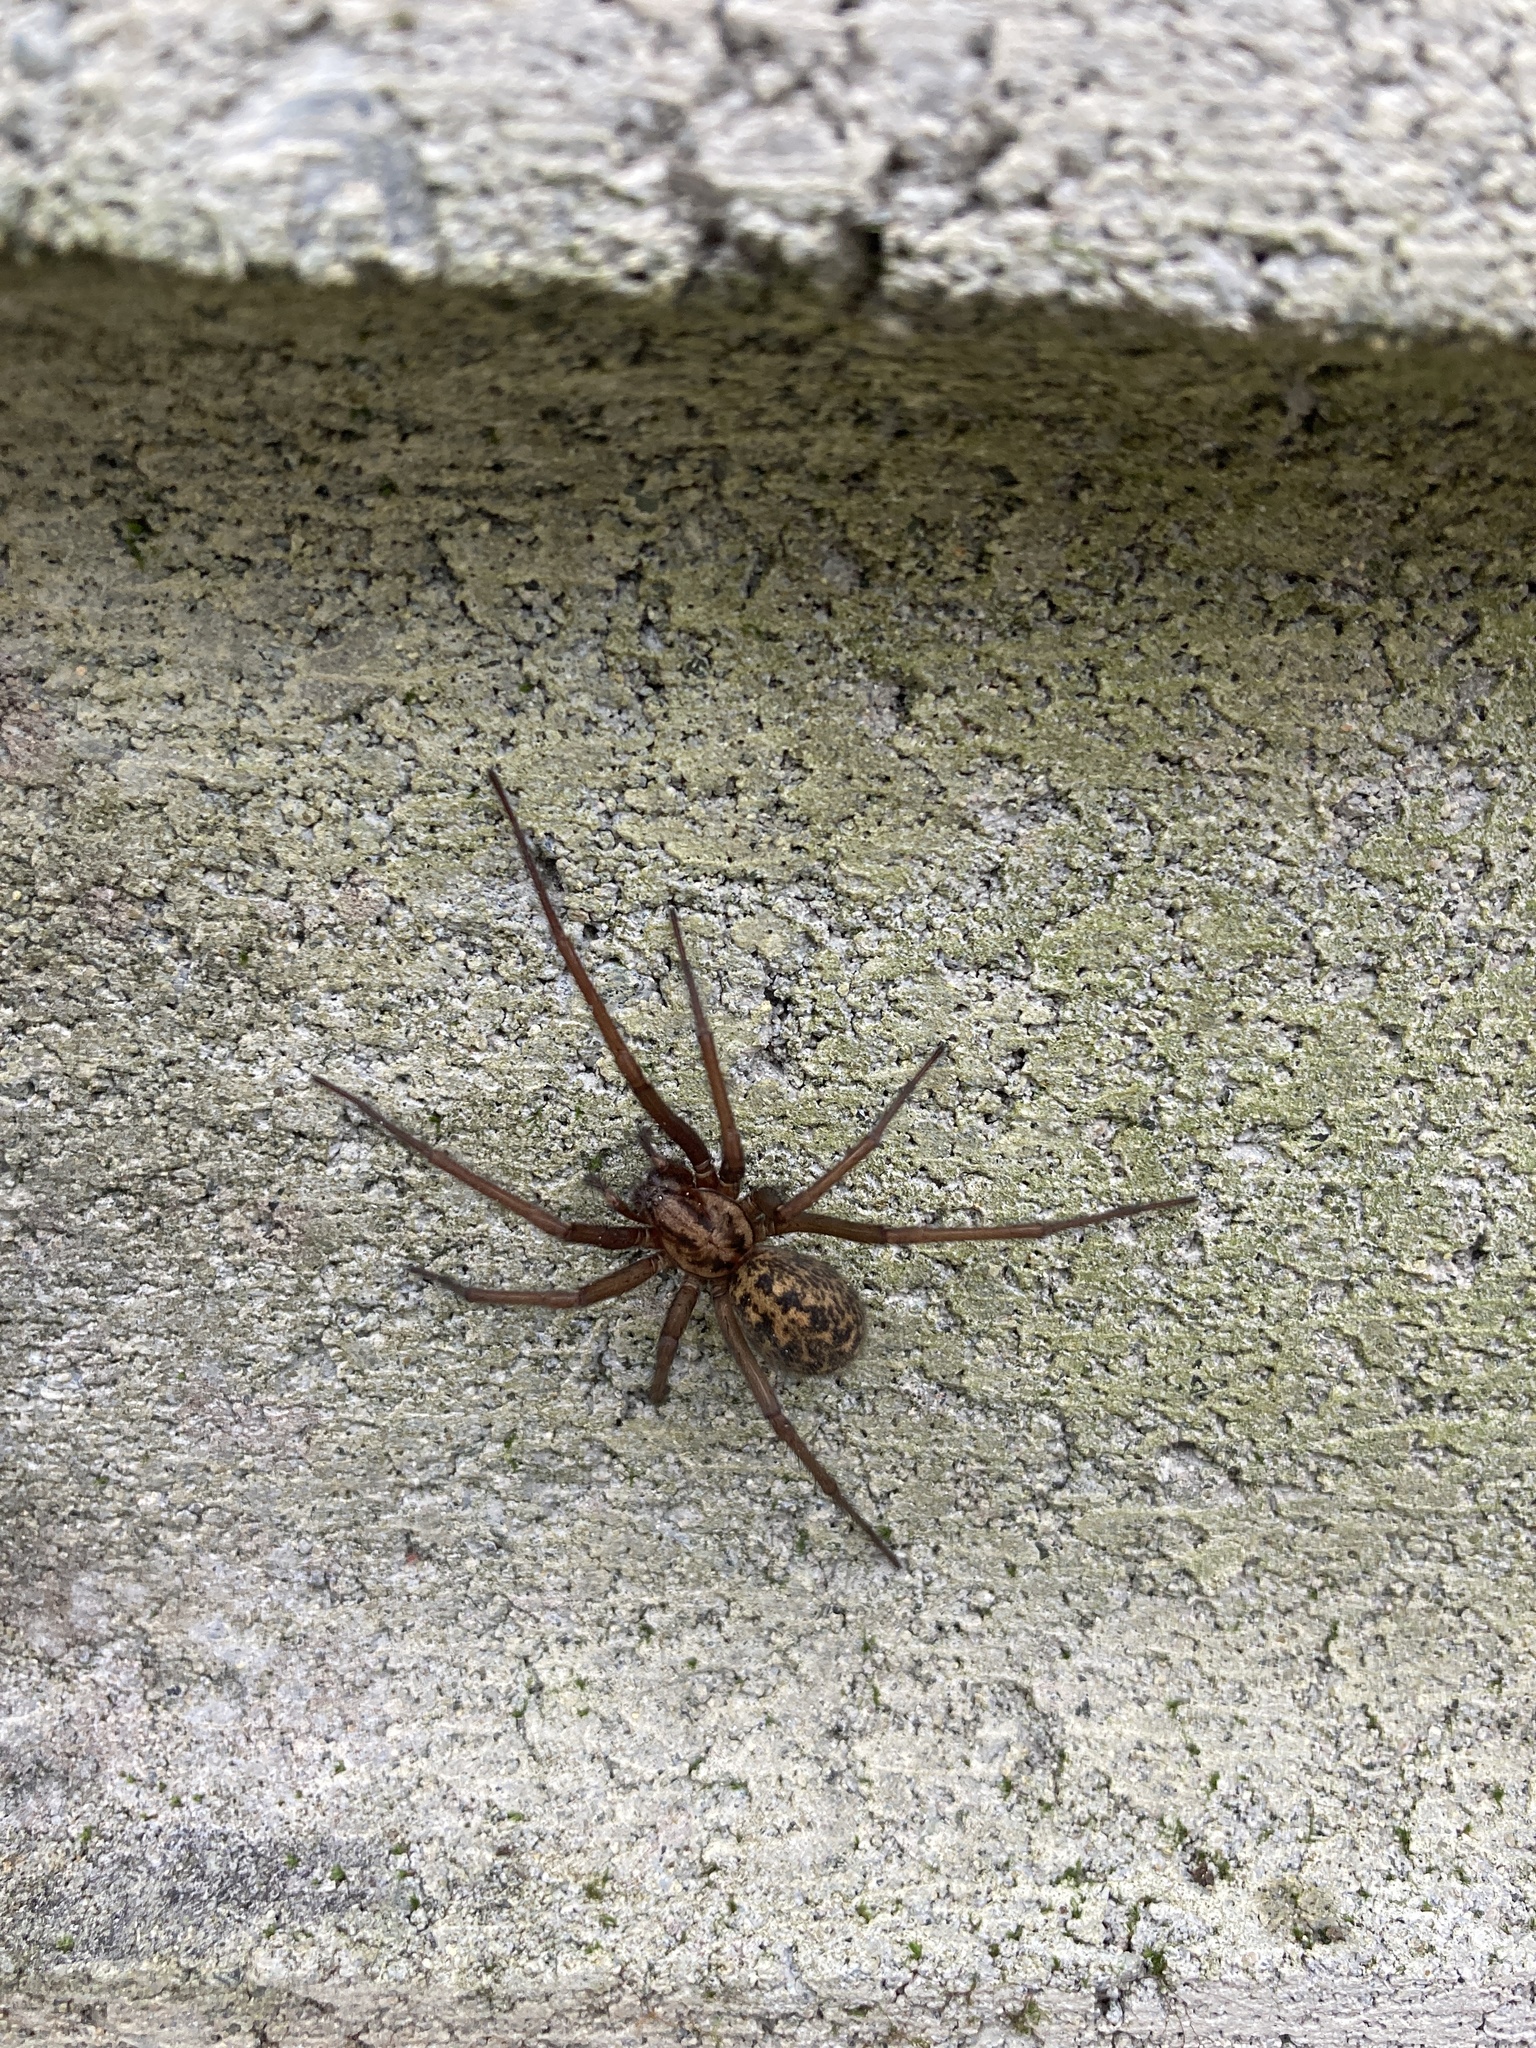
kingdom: Animalia
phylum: Arthropoda
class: Arachnida
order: Araneae
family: Agelenidae
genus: Eratigena
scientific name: Eratigena duellica
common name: Giant house spider
